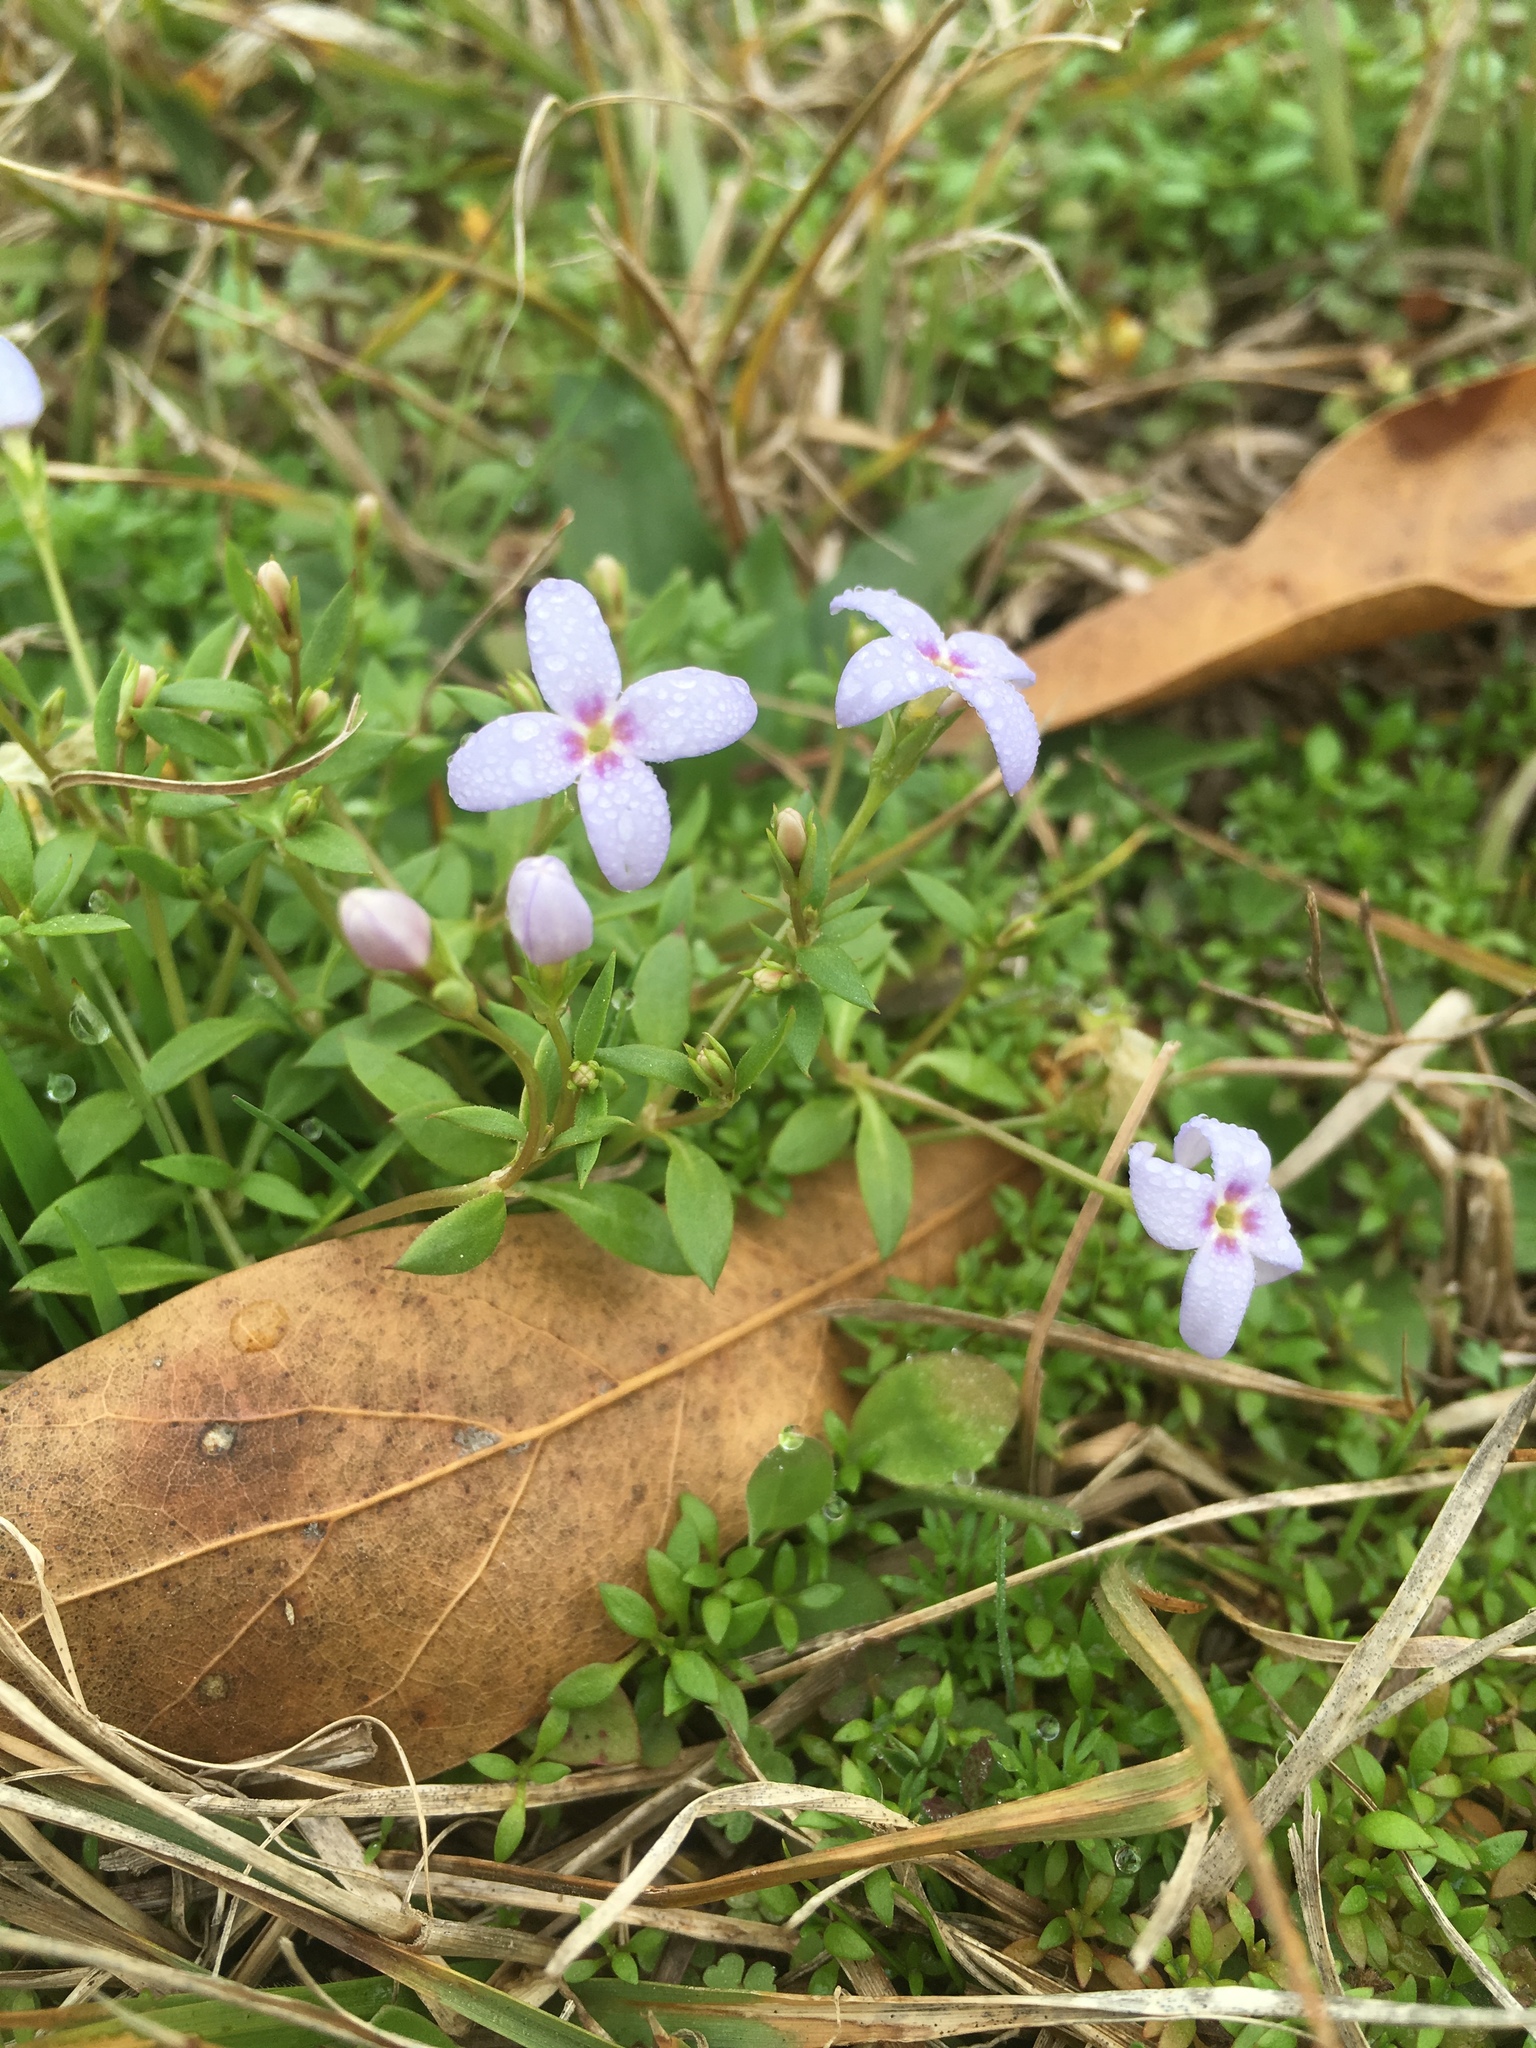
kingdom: Plantae
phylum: Tracheophyta
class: Magnoliopsida
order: Gentianales
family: Rubiaceae
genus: Houstonia
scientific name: Houstonia pusilla
